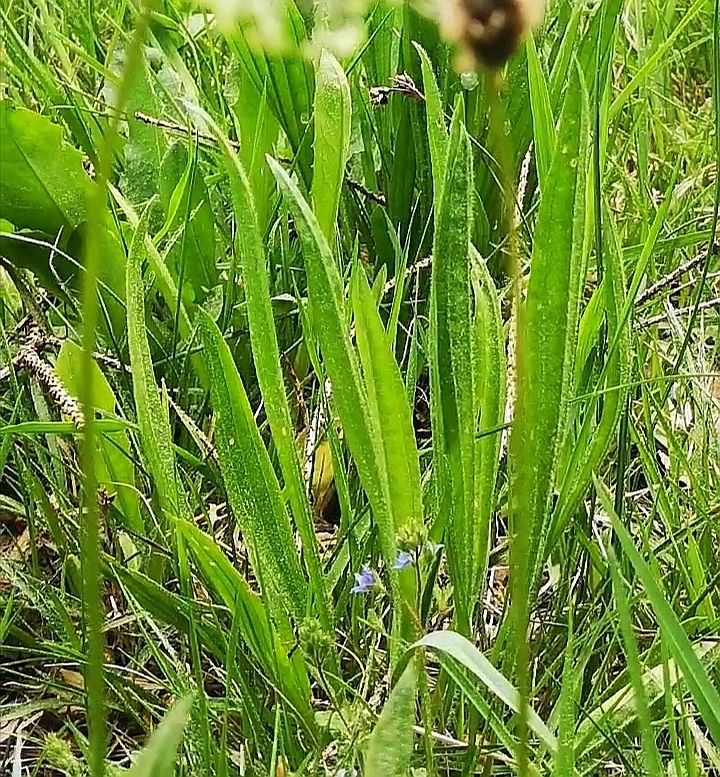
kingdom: Plantae
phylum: Tracheophyta
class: Magnoliopsida
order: Lamiales
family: Plantaginaceae
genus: Plantago
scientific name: Plantago lanceolata
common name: Ribwort plantain
